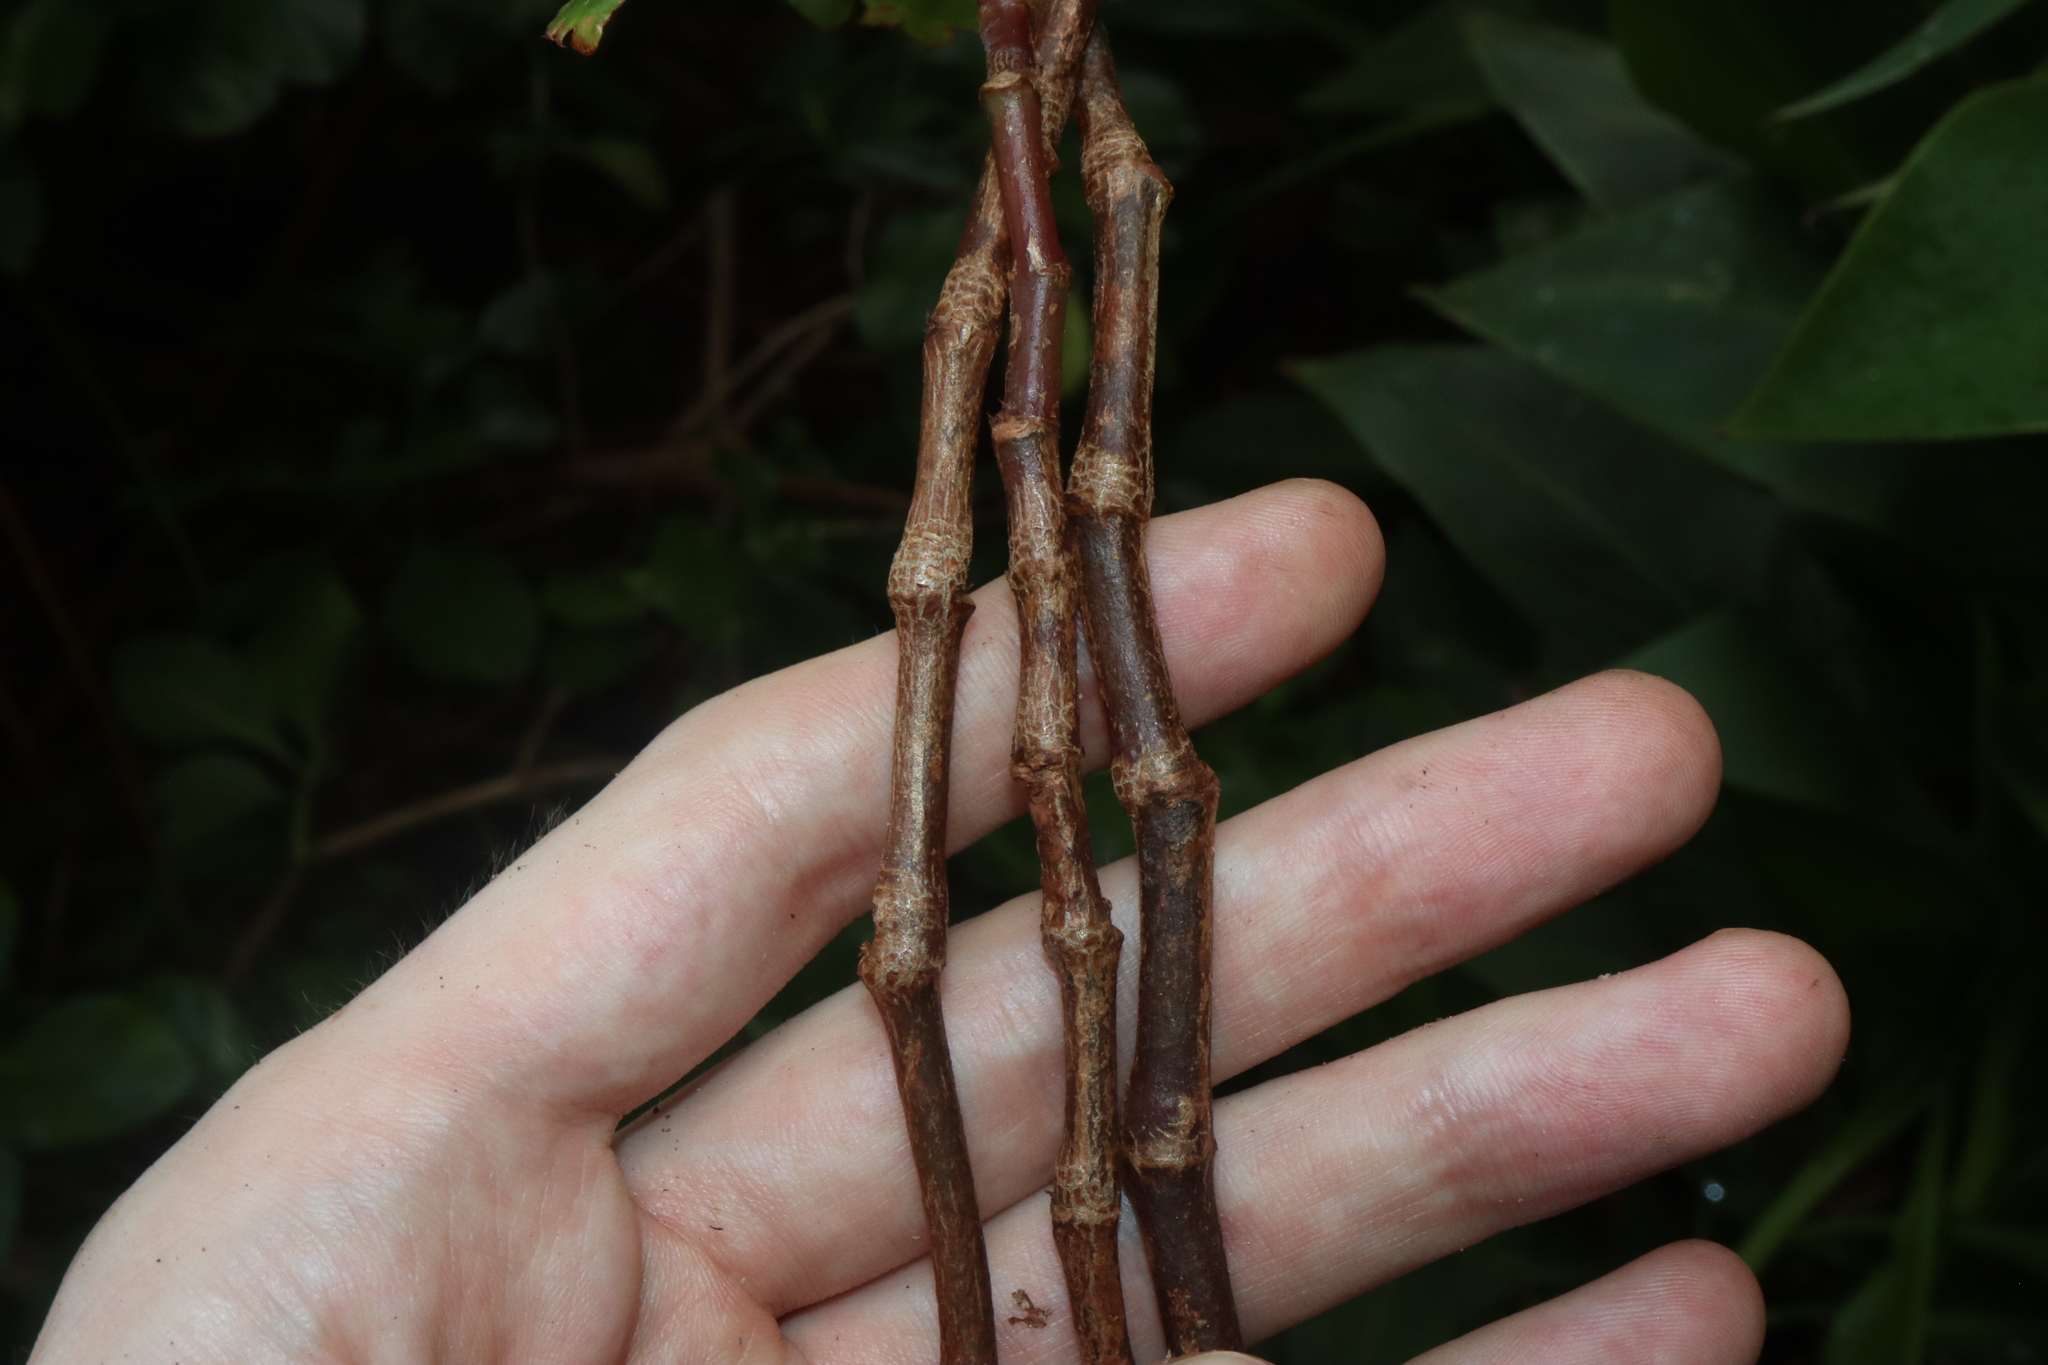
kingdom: Plantae
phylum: Tracheophyta
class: Magnoliopsida
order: Cucurbitales
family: Begoniaceae
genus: Begonia
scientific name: Begonia cucullata
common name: Clubbed begonia
